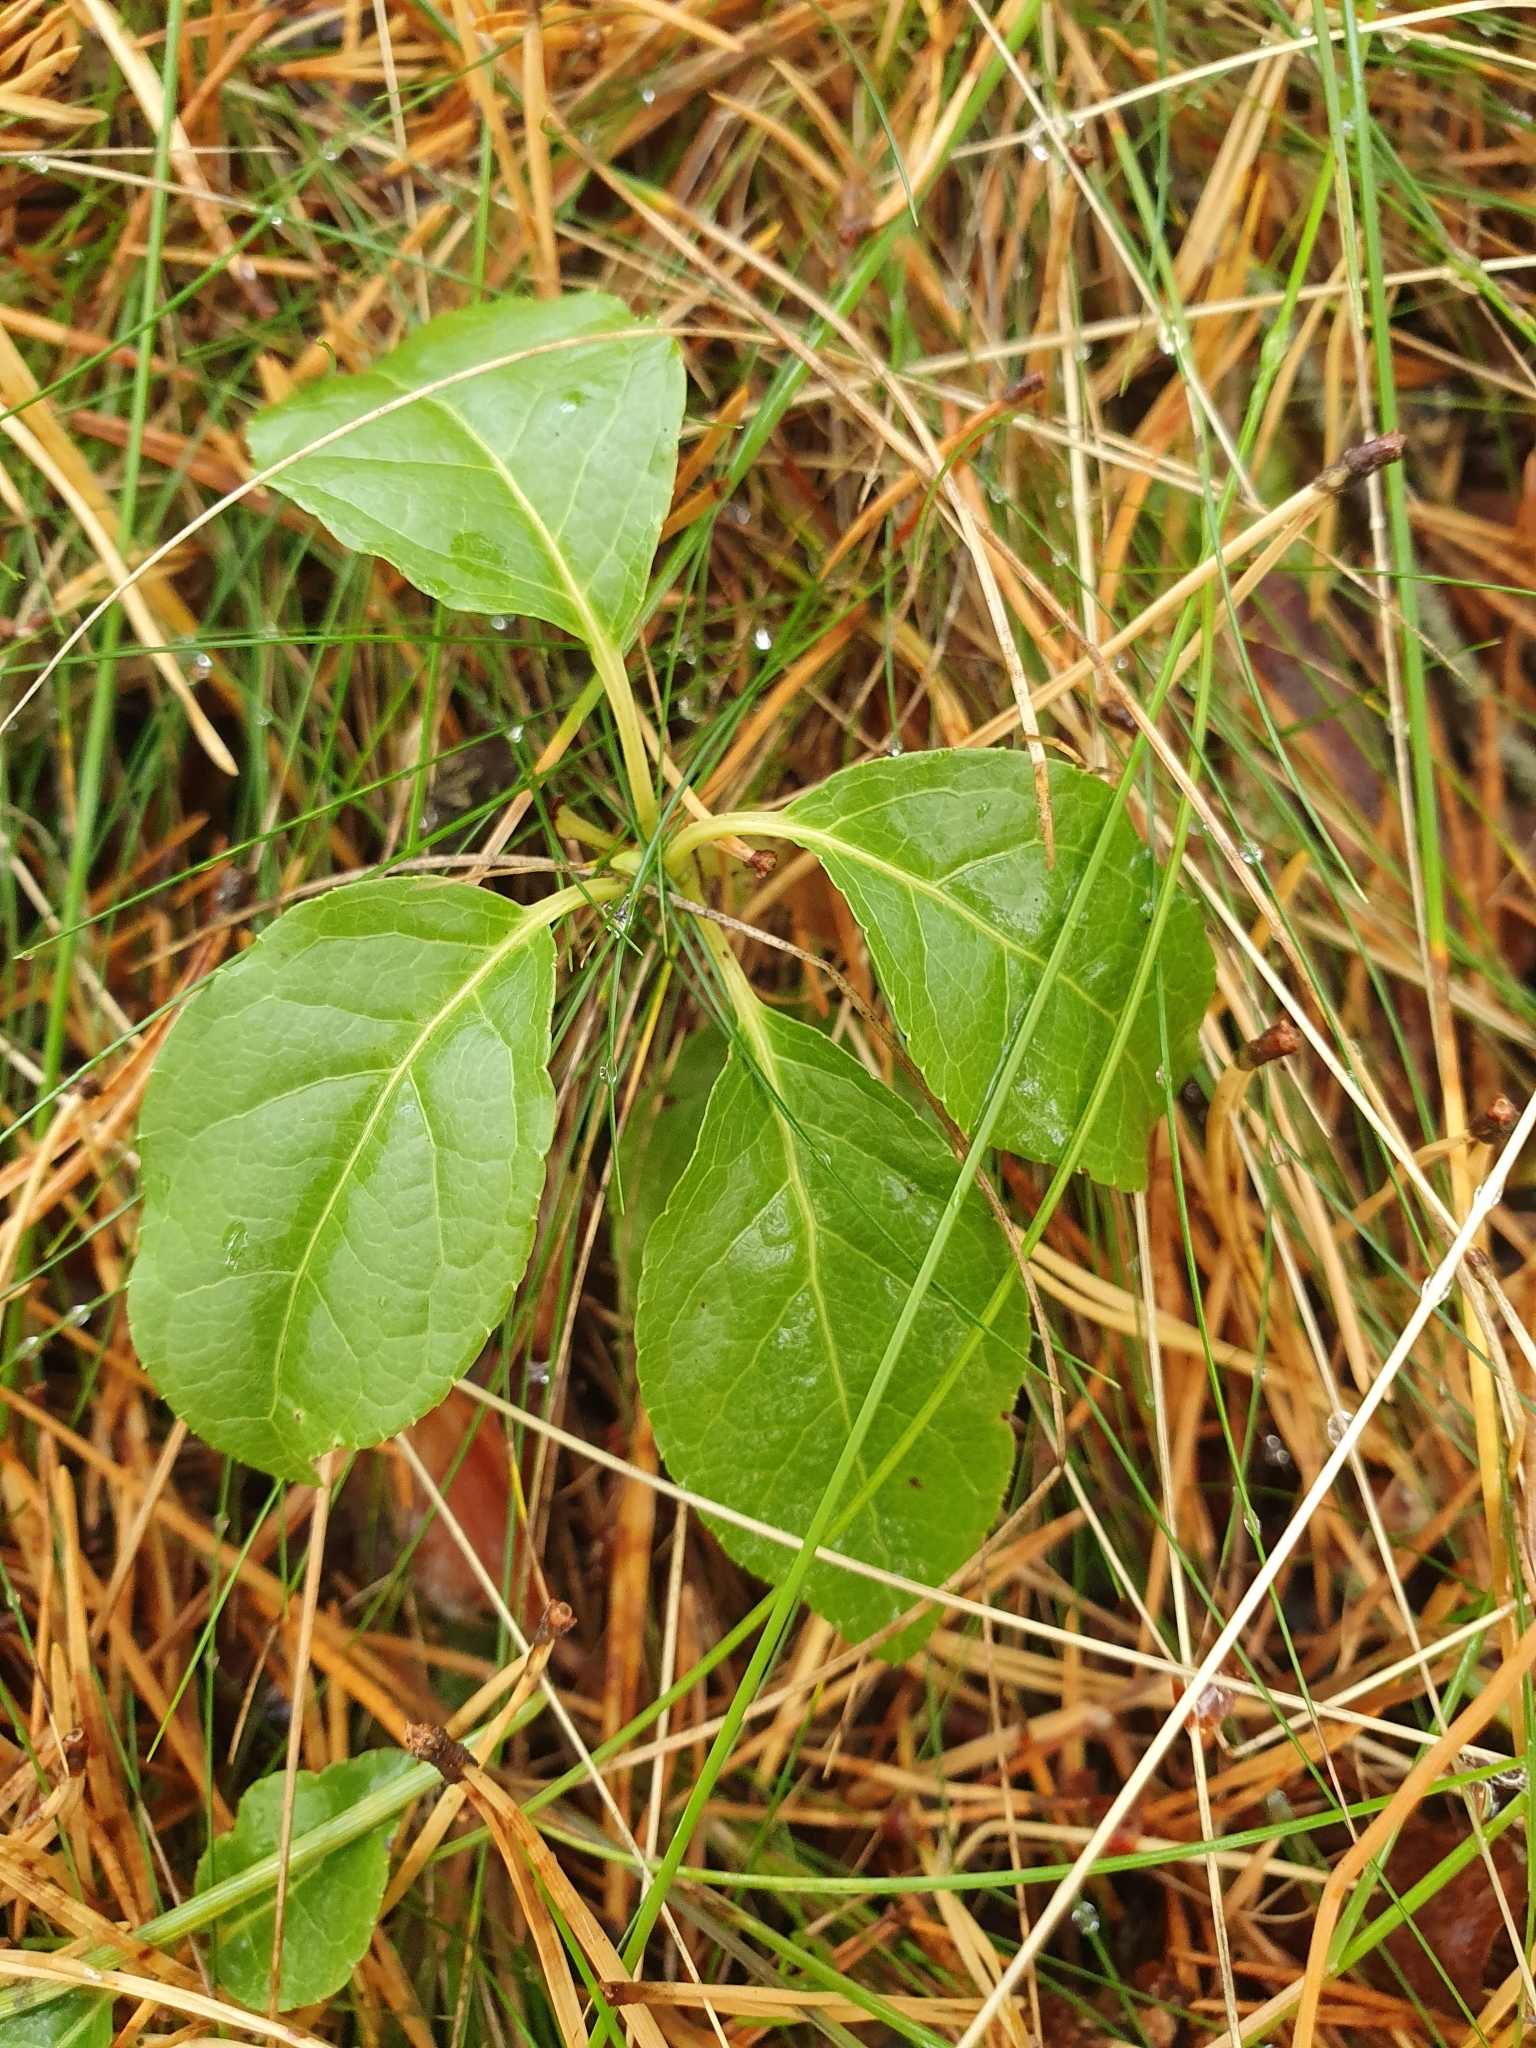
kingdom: Plantae
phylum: Tracheophyta
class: Magnoliopsida
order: Ericales
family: Ericaceae
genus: Orthilia
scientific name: Orthilia secunda
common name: One-sided orthilia
